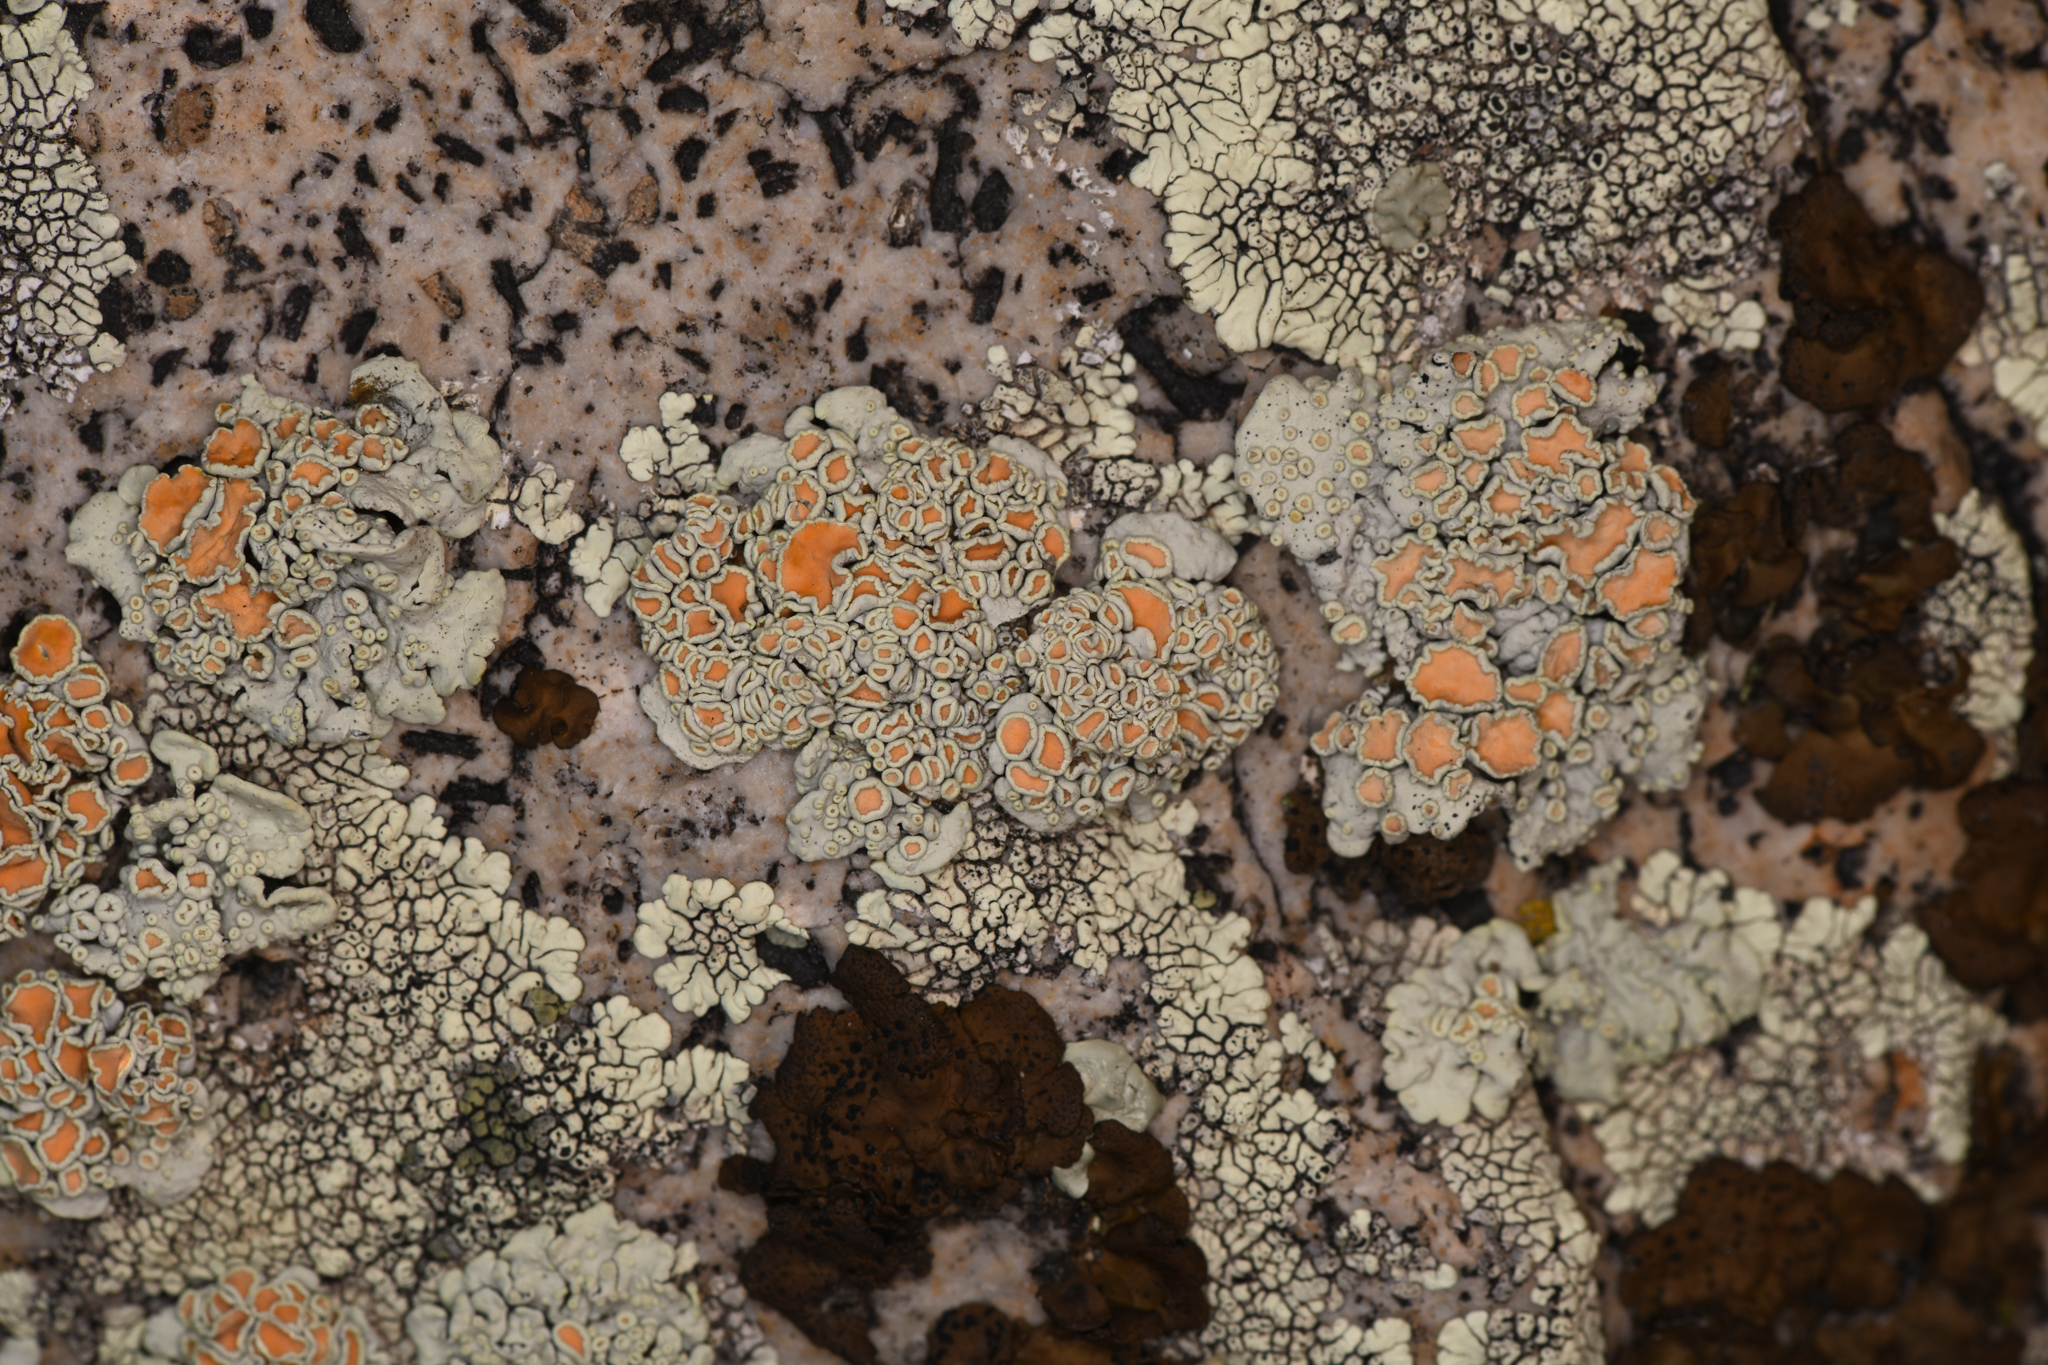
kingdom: Fungi
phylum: Ascomycota
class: Lecanoromycetes
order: Lecanorales
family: Lecanoraceae
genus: Omphalodina
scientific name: Omphalodina chrysoleuca
